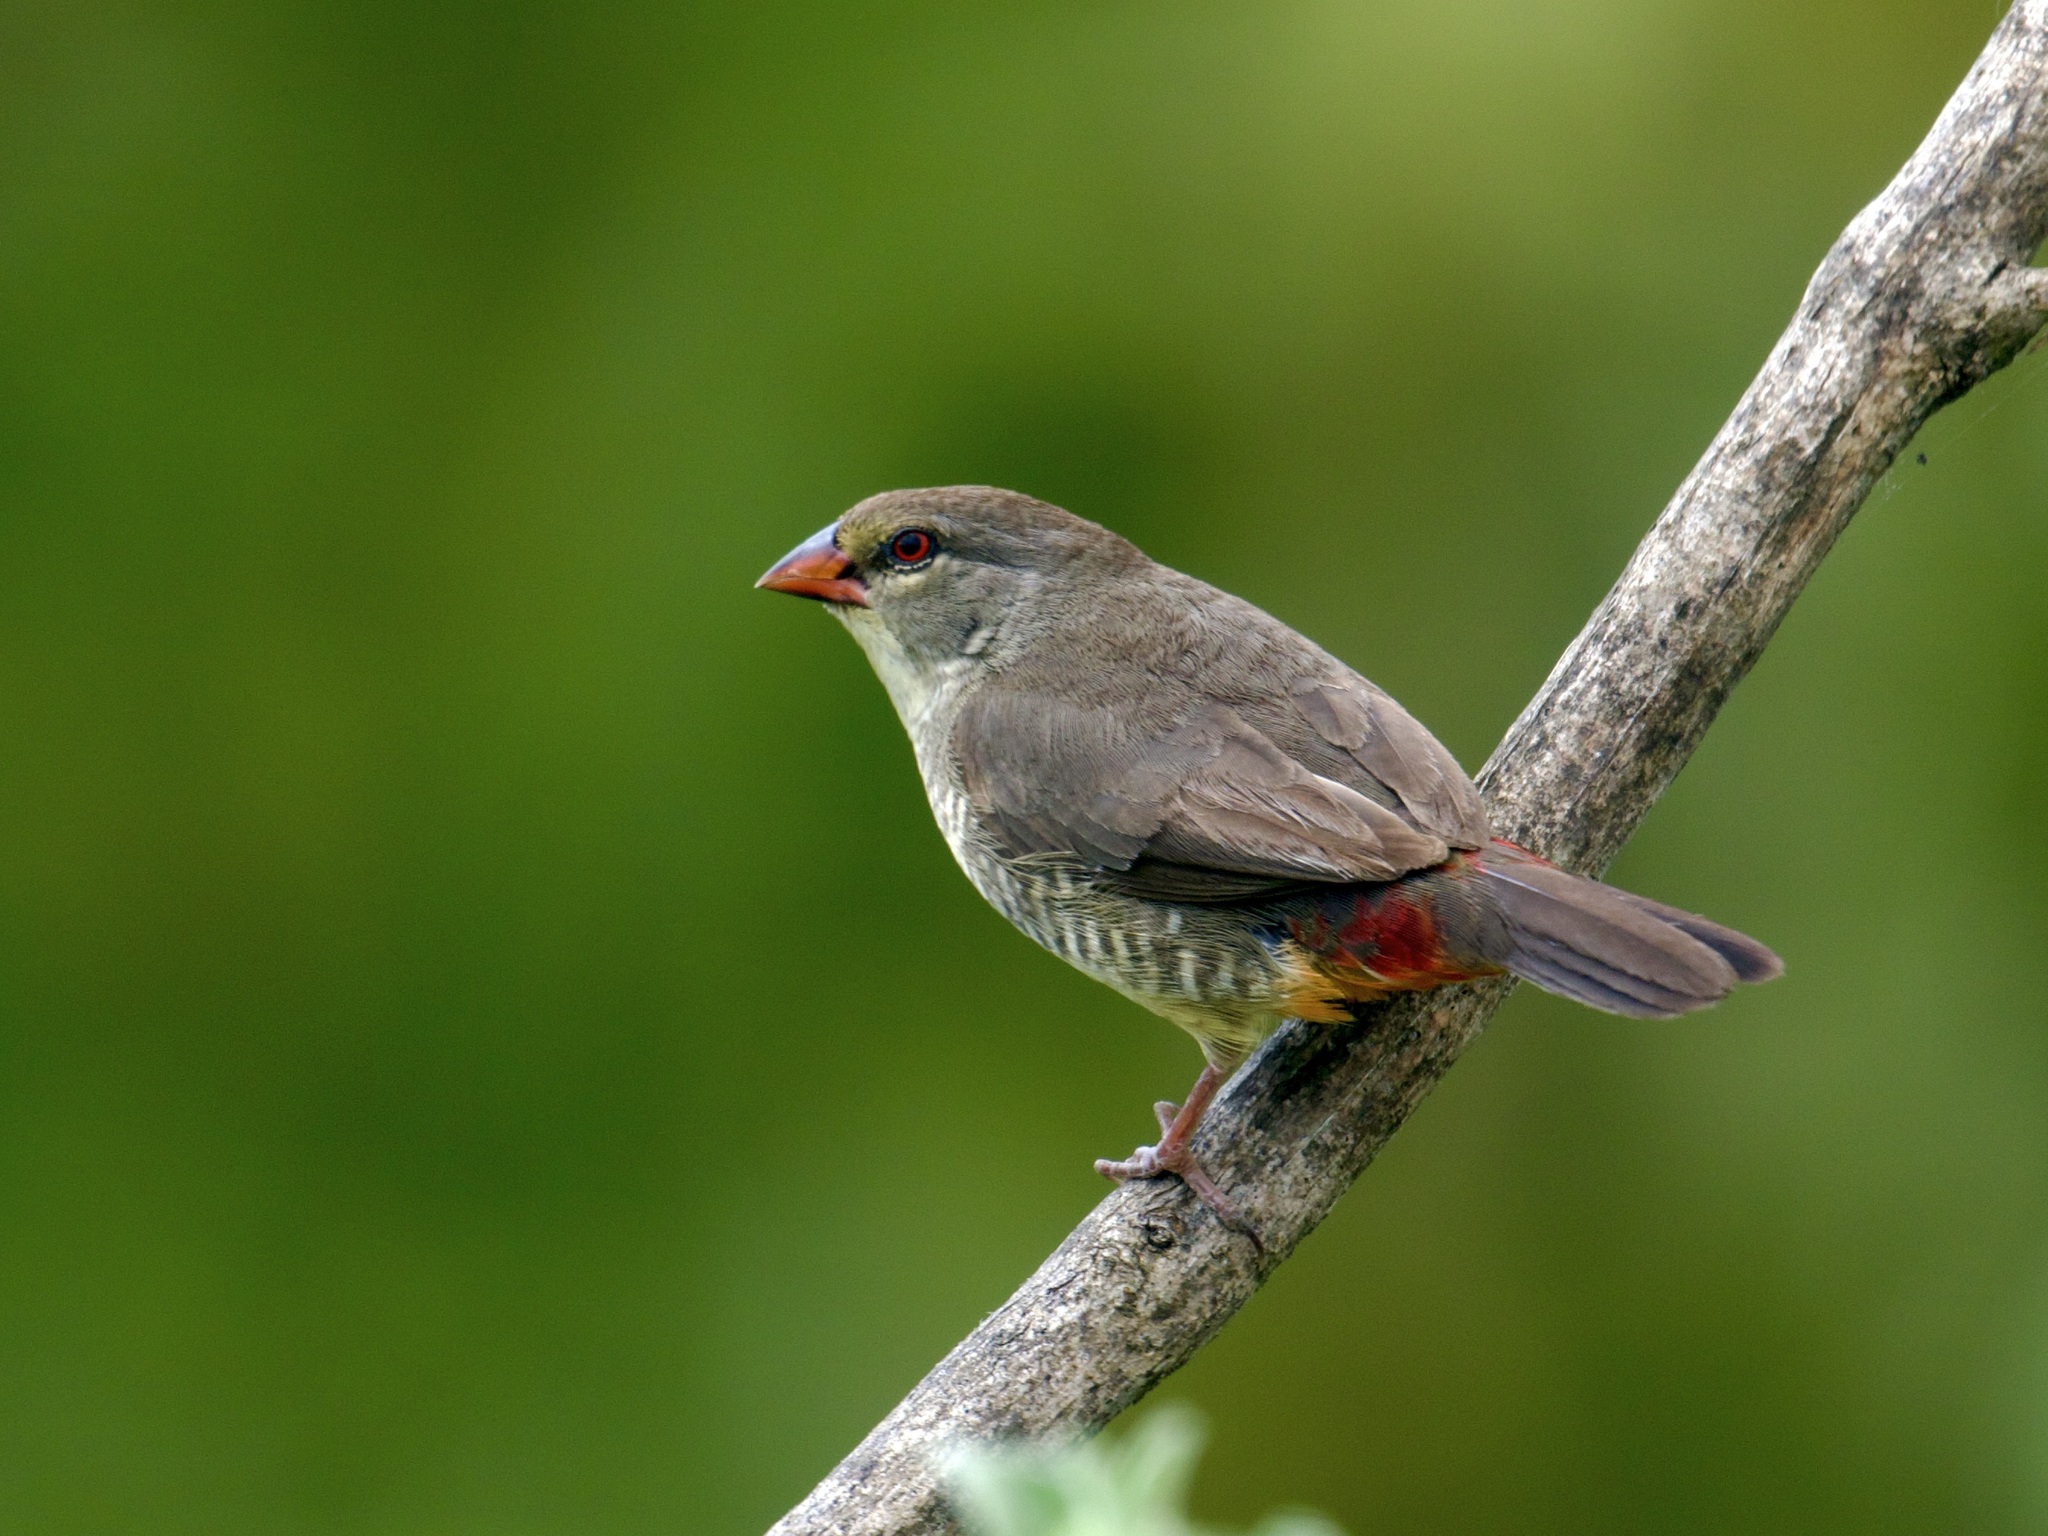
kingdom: Animalia
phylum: Chordata
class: Aves
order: Passeriformes
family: Estrildidae
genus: Amandava
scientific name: Amandava subflava
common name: Orange-breasted waxbill
